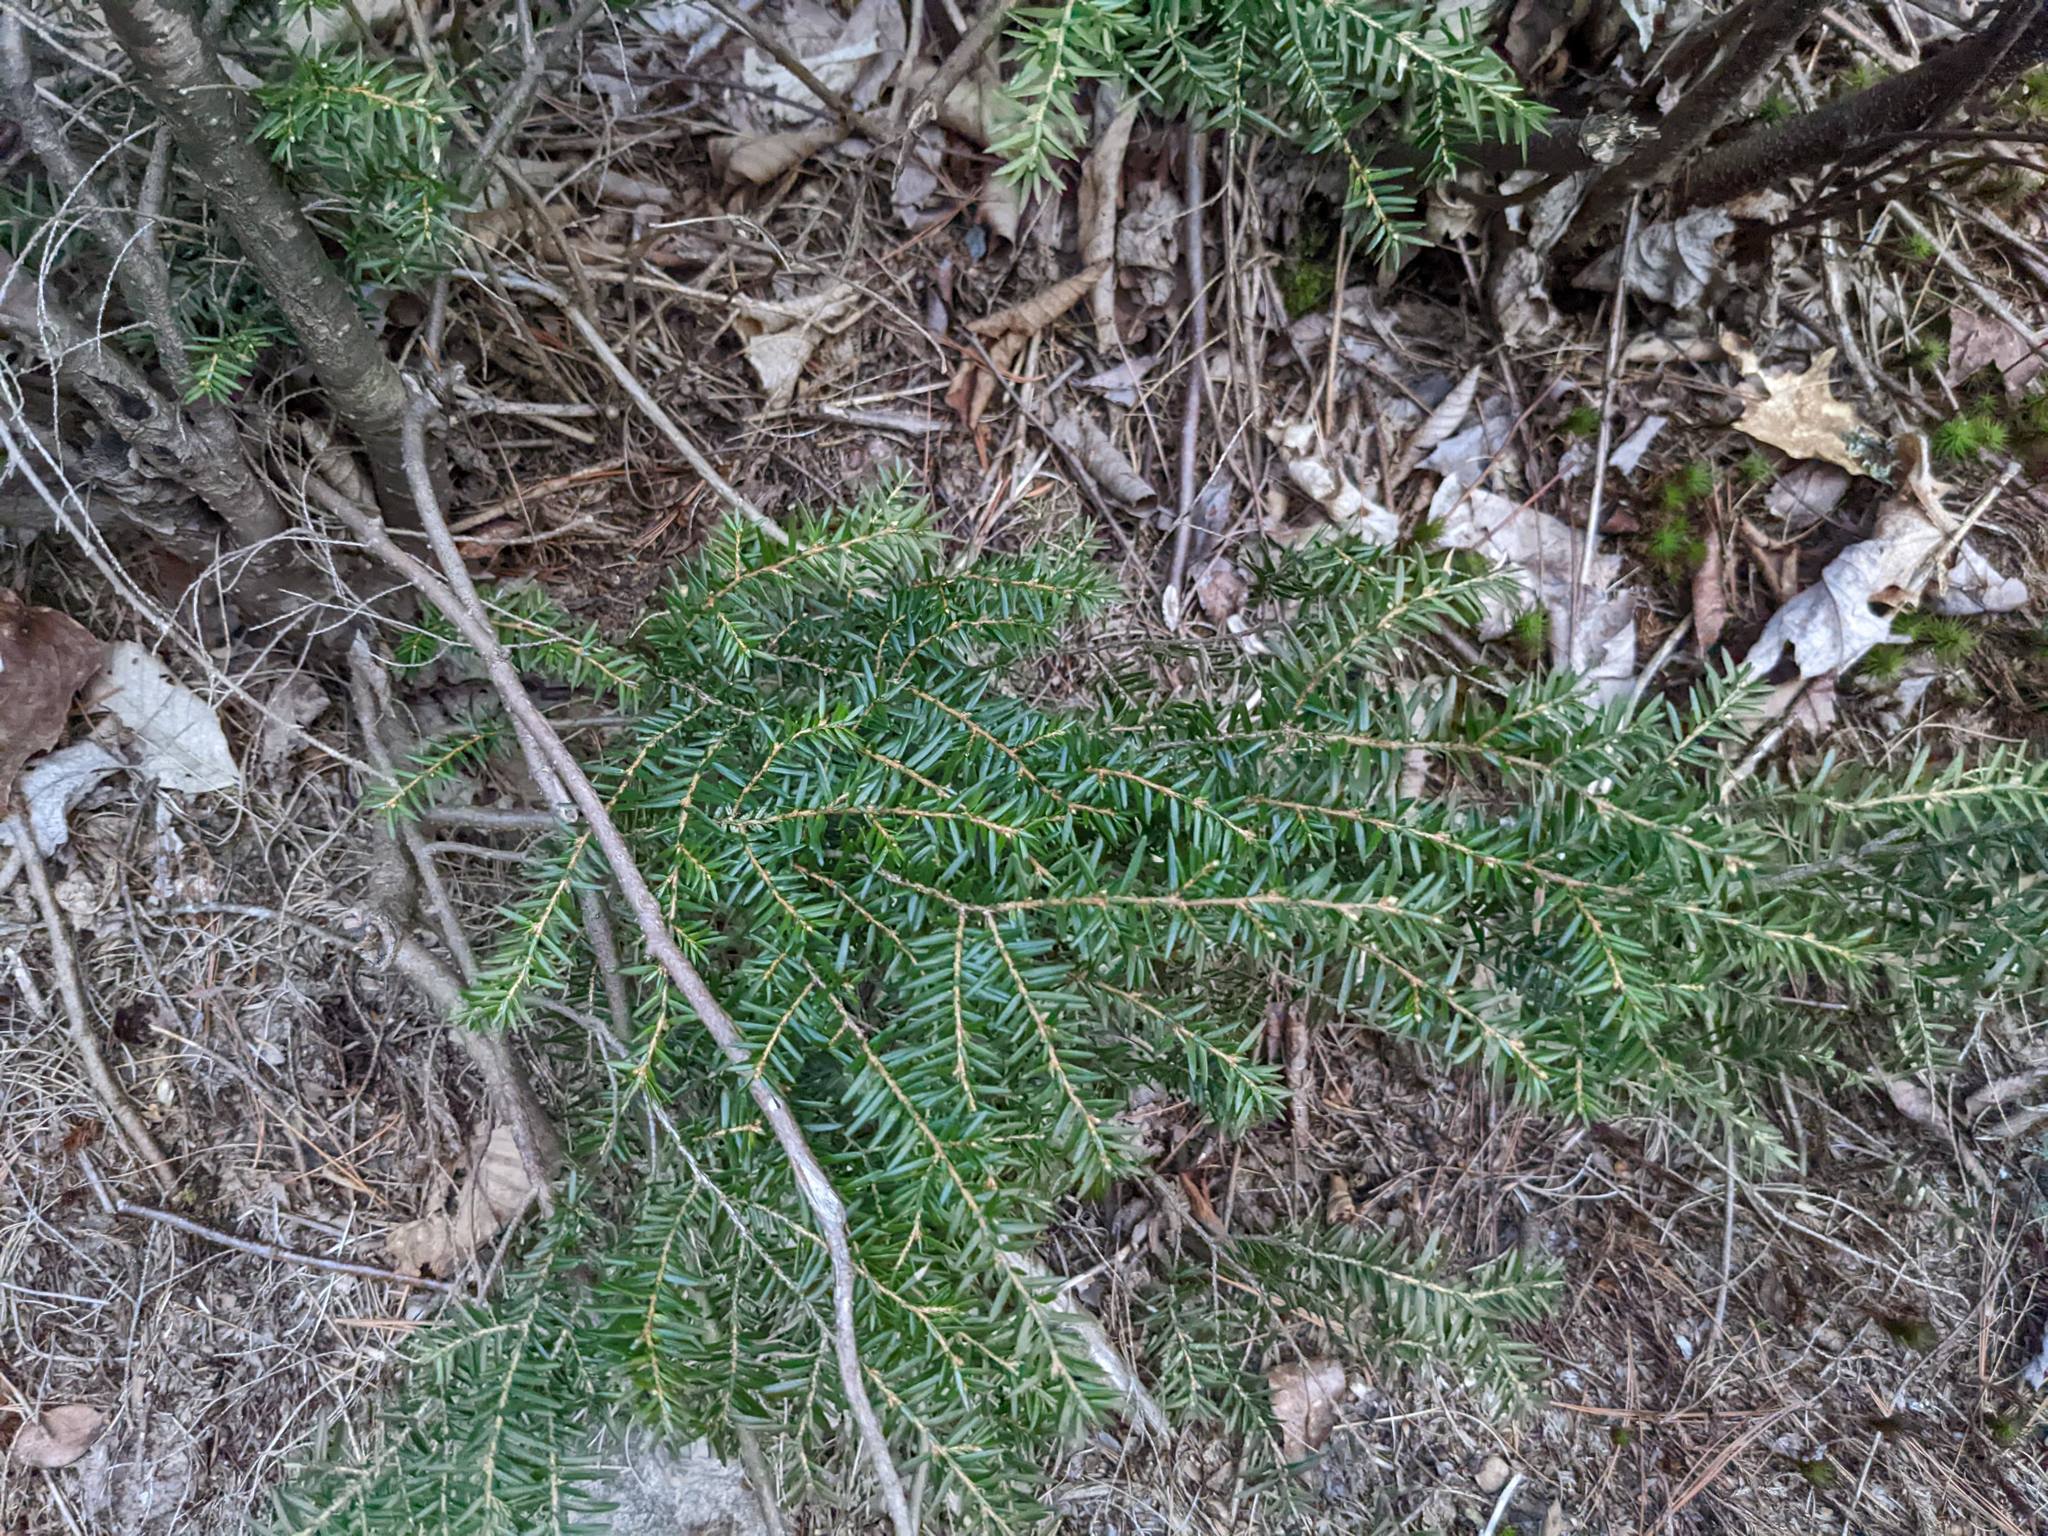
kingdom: Plantae
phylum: Tracheophyta
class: Pinopsida
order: Pinales
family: Pinaceae
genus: Tsuga
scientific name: Tsuga canadensis
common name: Eastern hemlock
